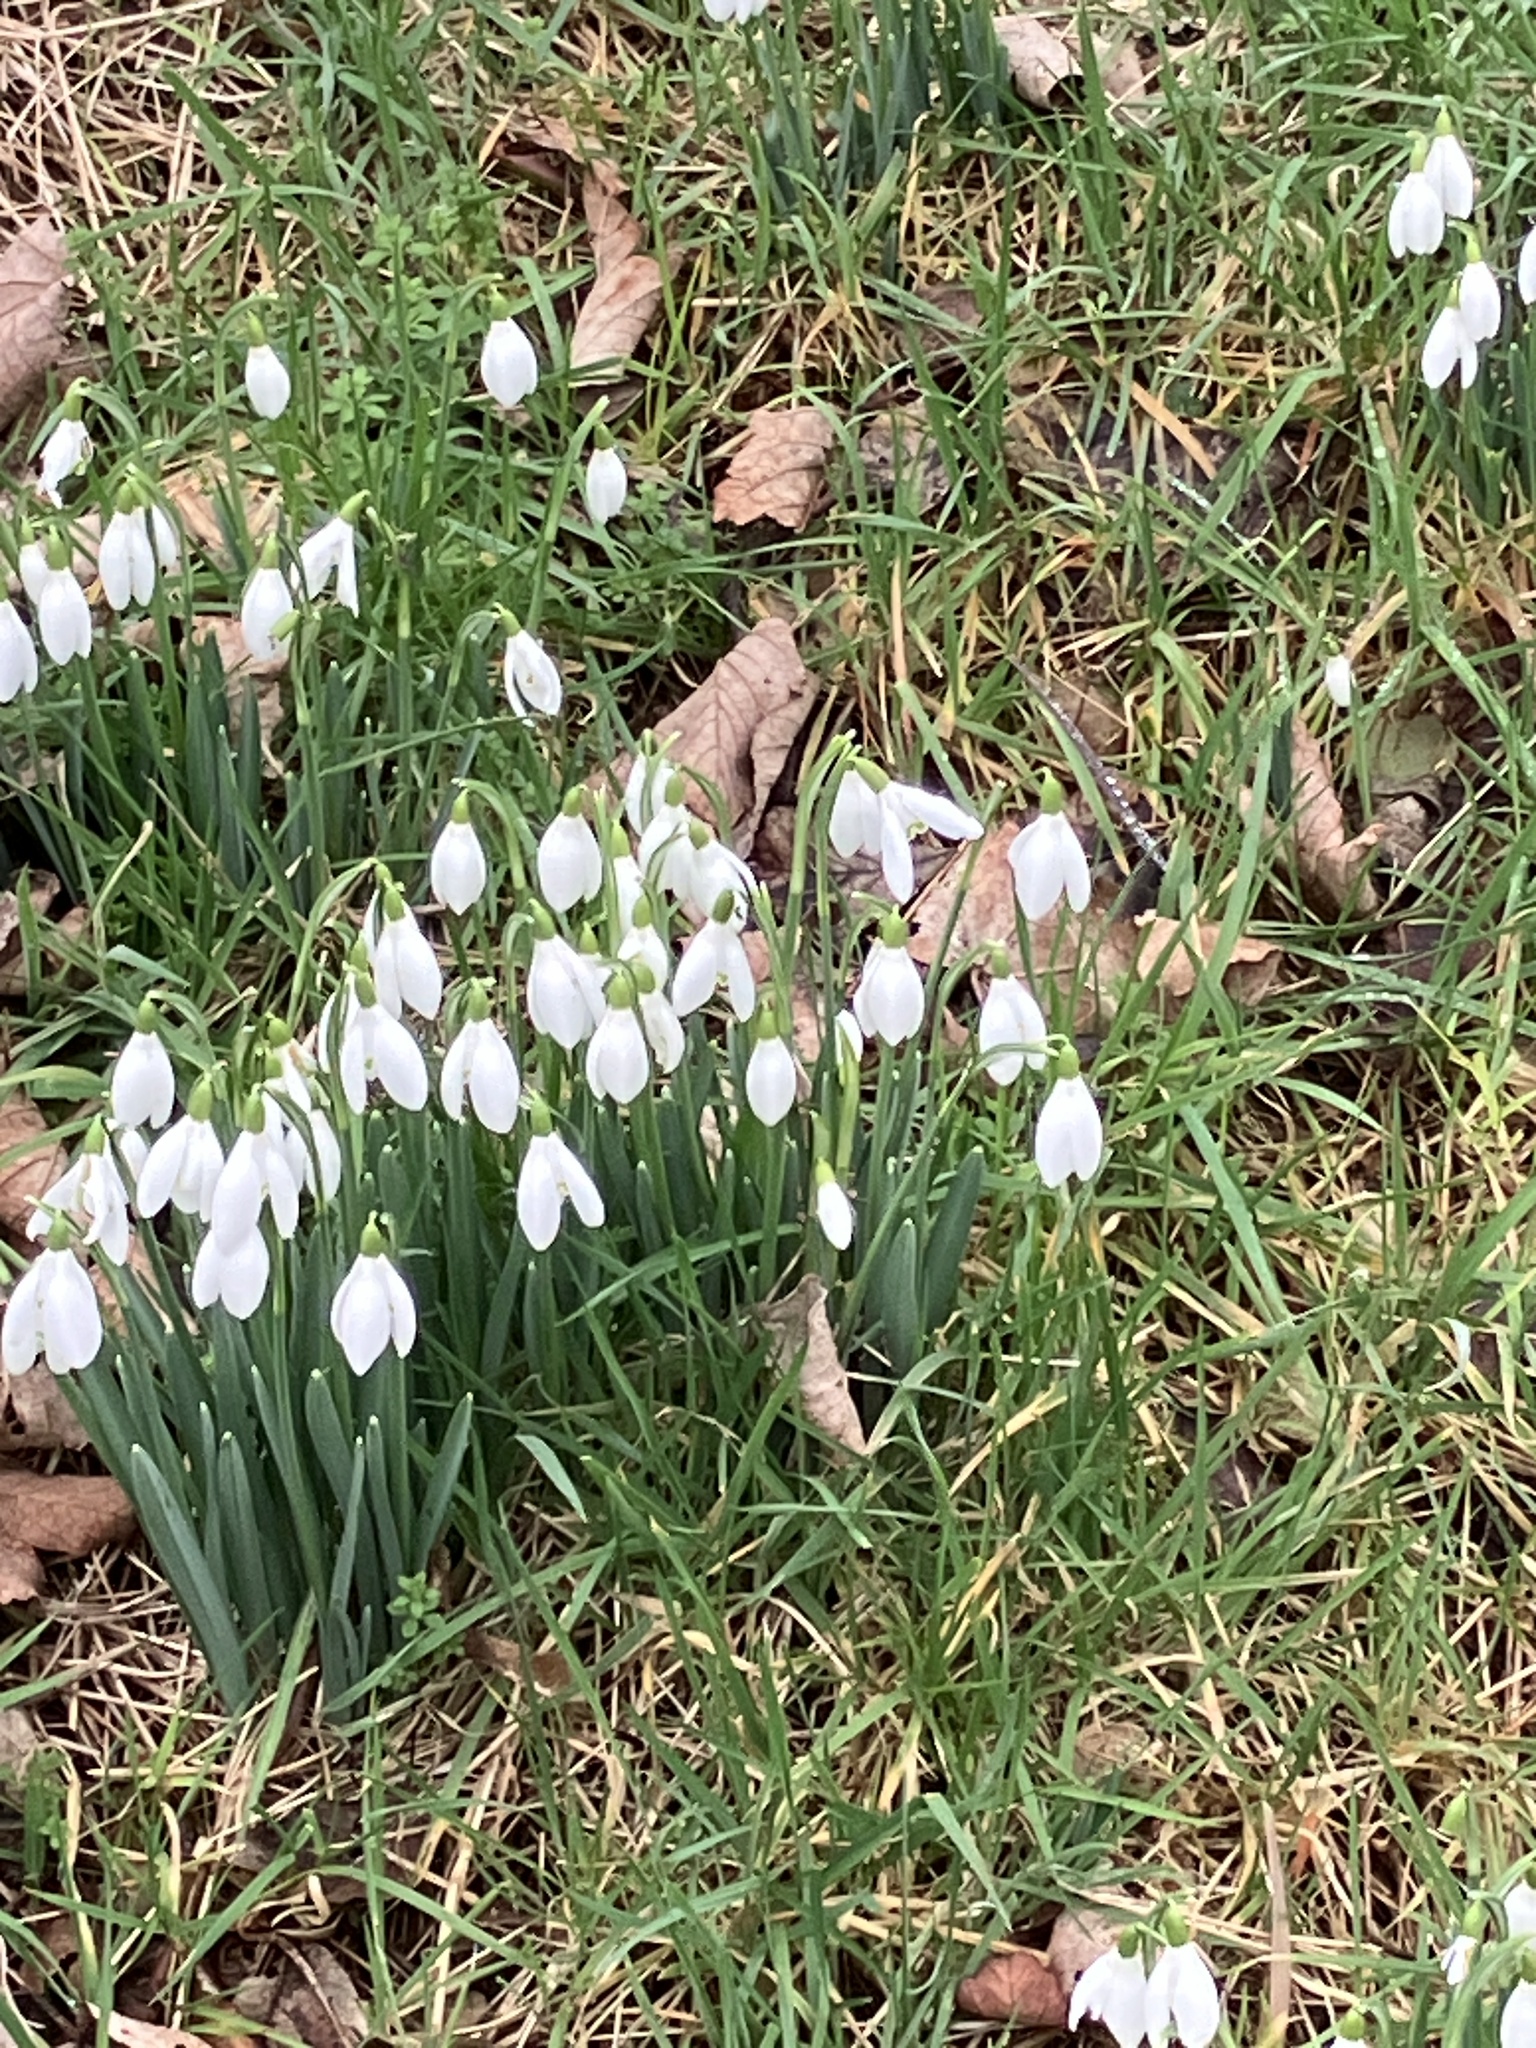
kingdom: Plantae
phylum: Tracheophyta
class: Liliopsida
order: Asparagales
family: Amaryllidaceae
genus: Galanthus
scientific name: Galanthus nivalis
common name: Snowdrop
